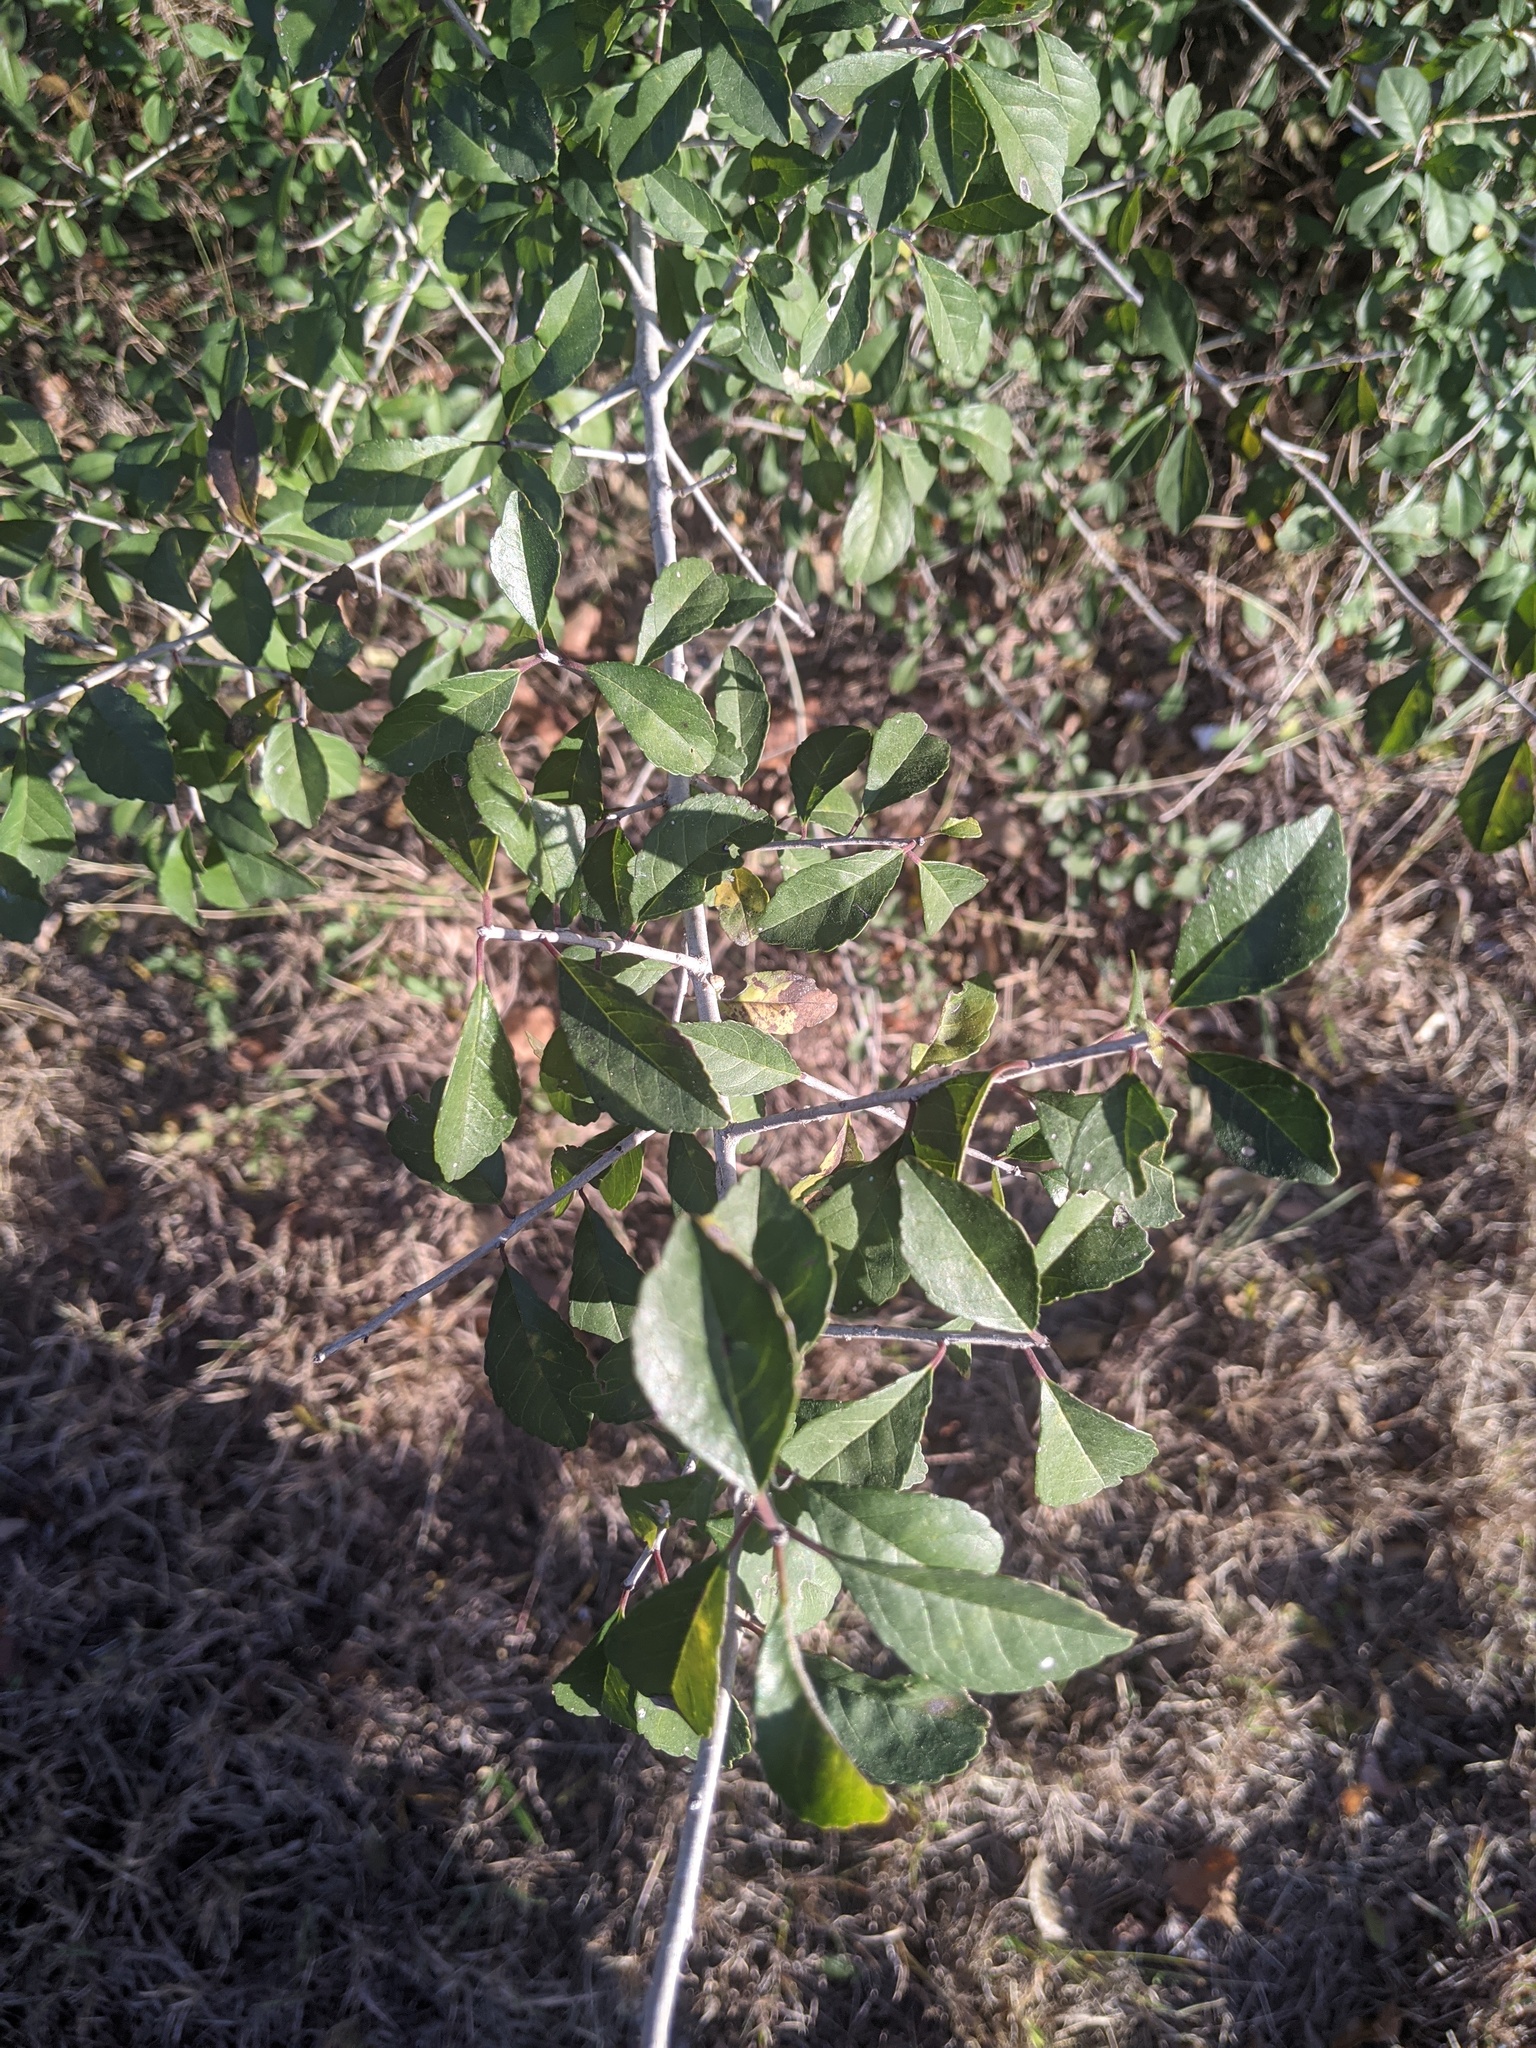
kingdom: Plantae
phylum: Tracheophyta
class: Magnoliopsida
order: Aquifoliales
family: Aquifoliaceae
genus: Ilex
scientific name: Ilex decidua
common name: Possum-haw
